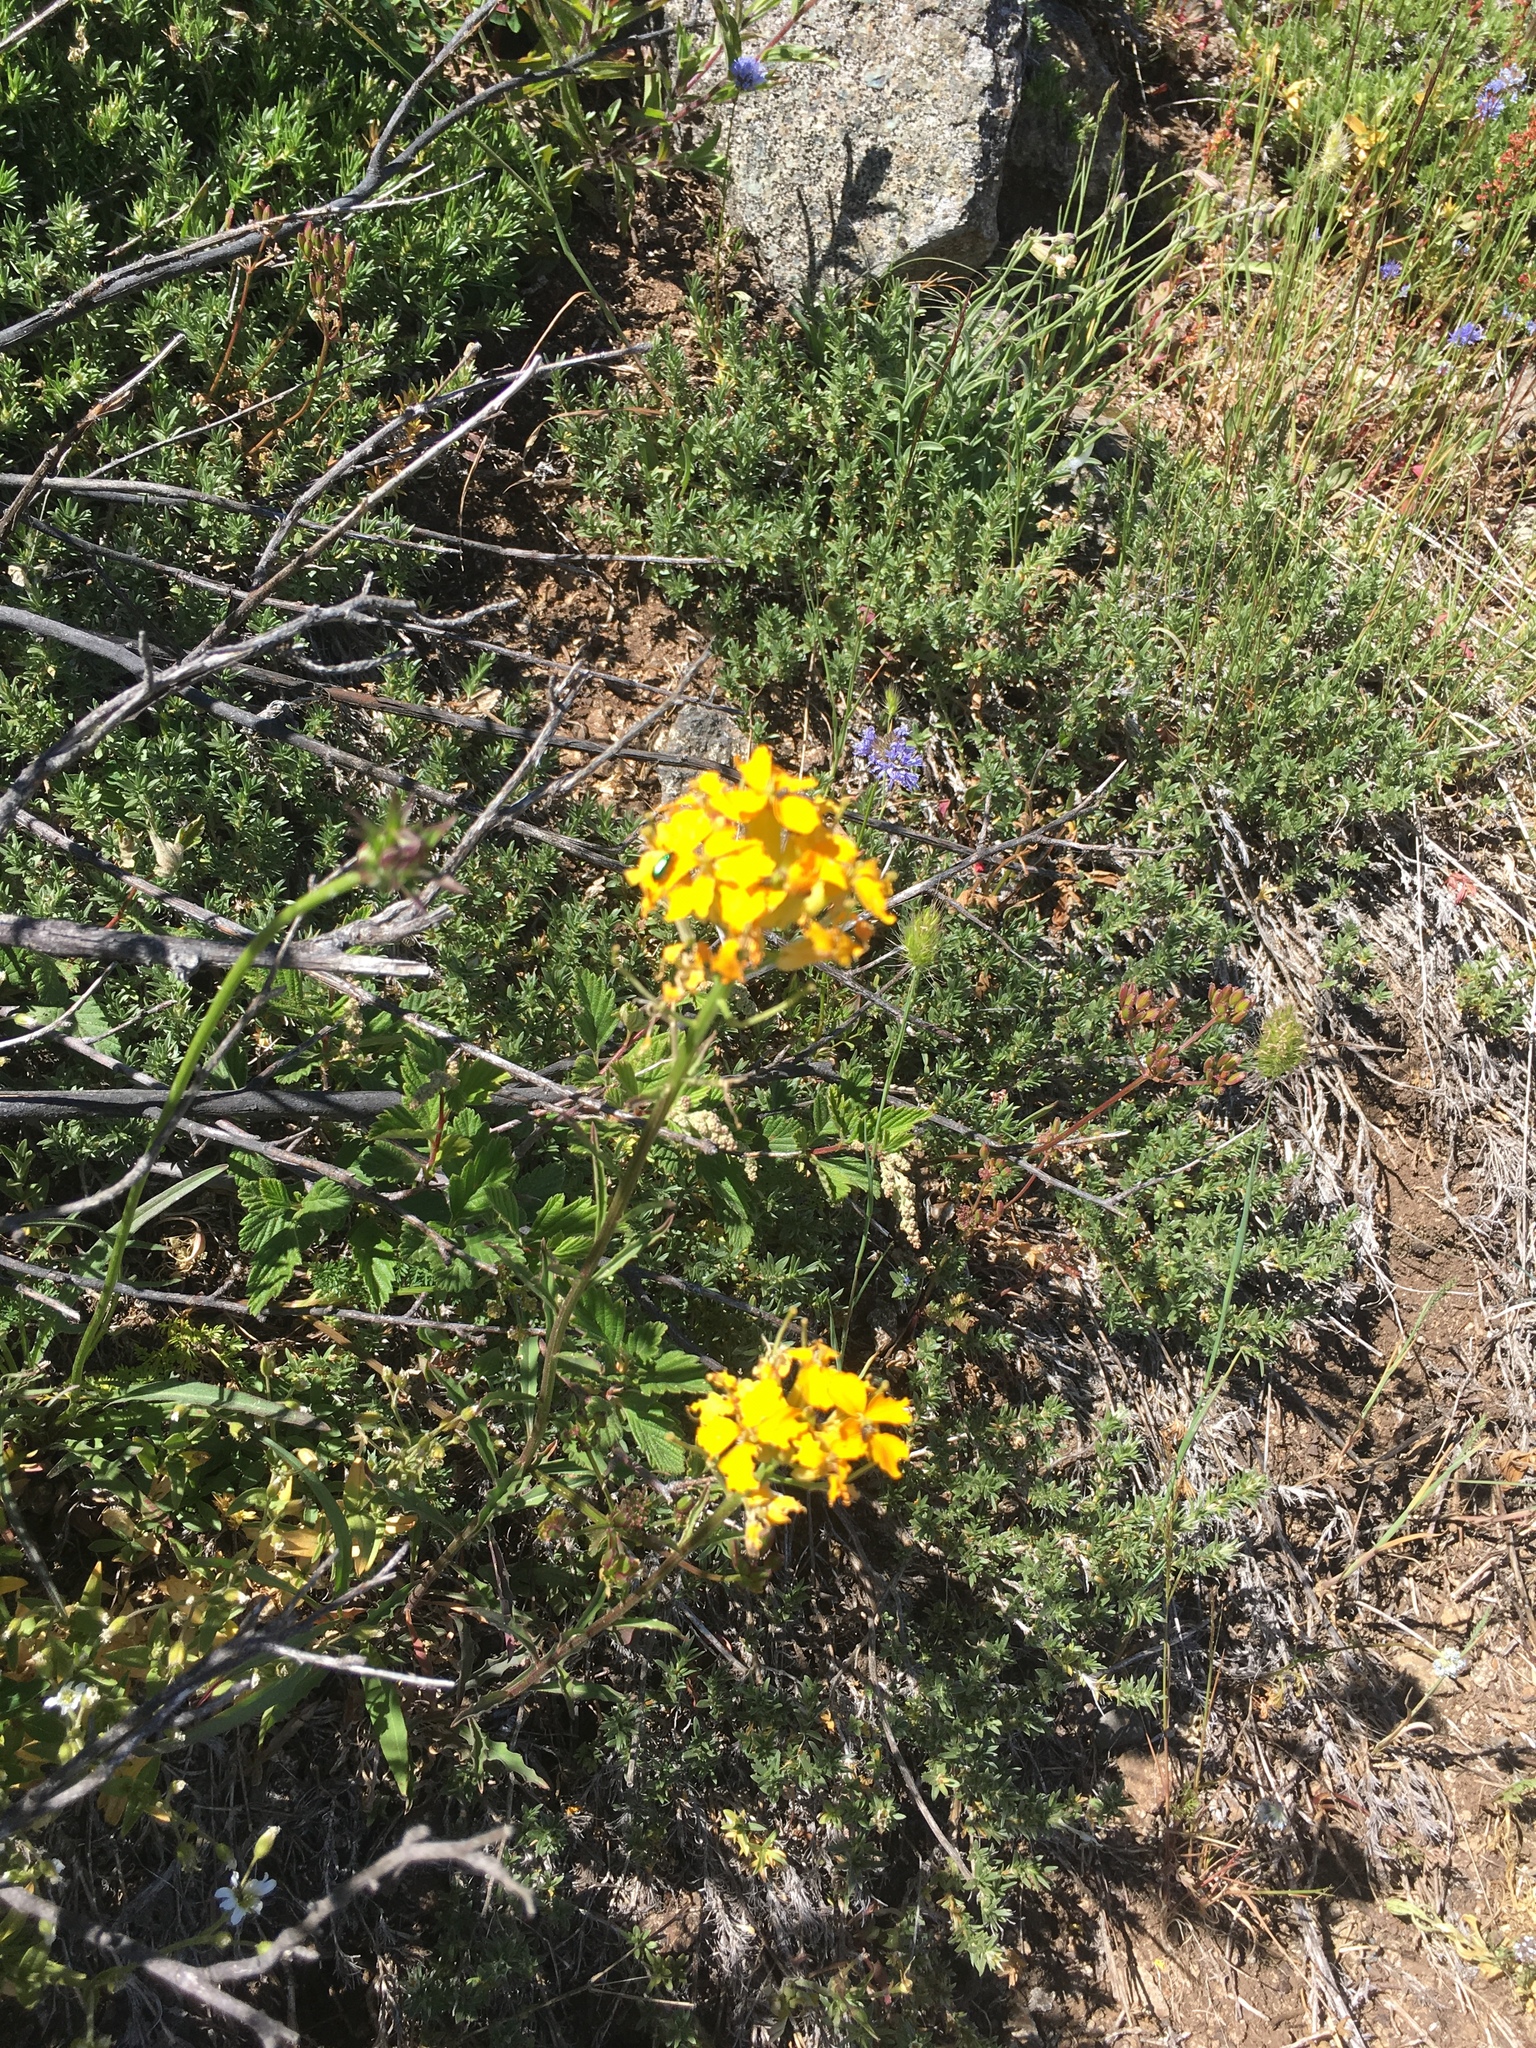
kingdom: Plantae
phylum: Tracheophyta
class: Magnoliopsida
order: Brassicales
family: Brassicaceae
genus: Erysimum
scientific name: Erysimum capitatum
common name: Western wallflower
